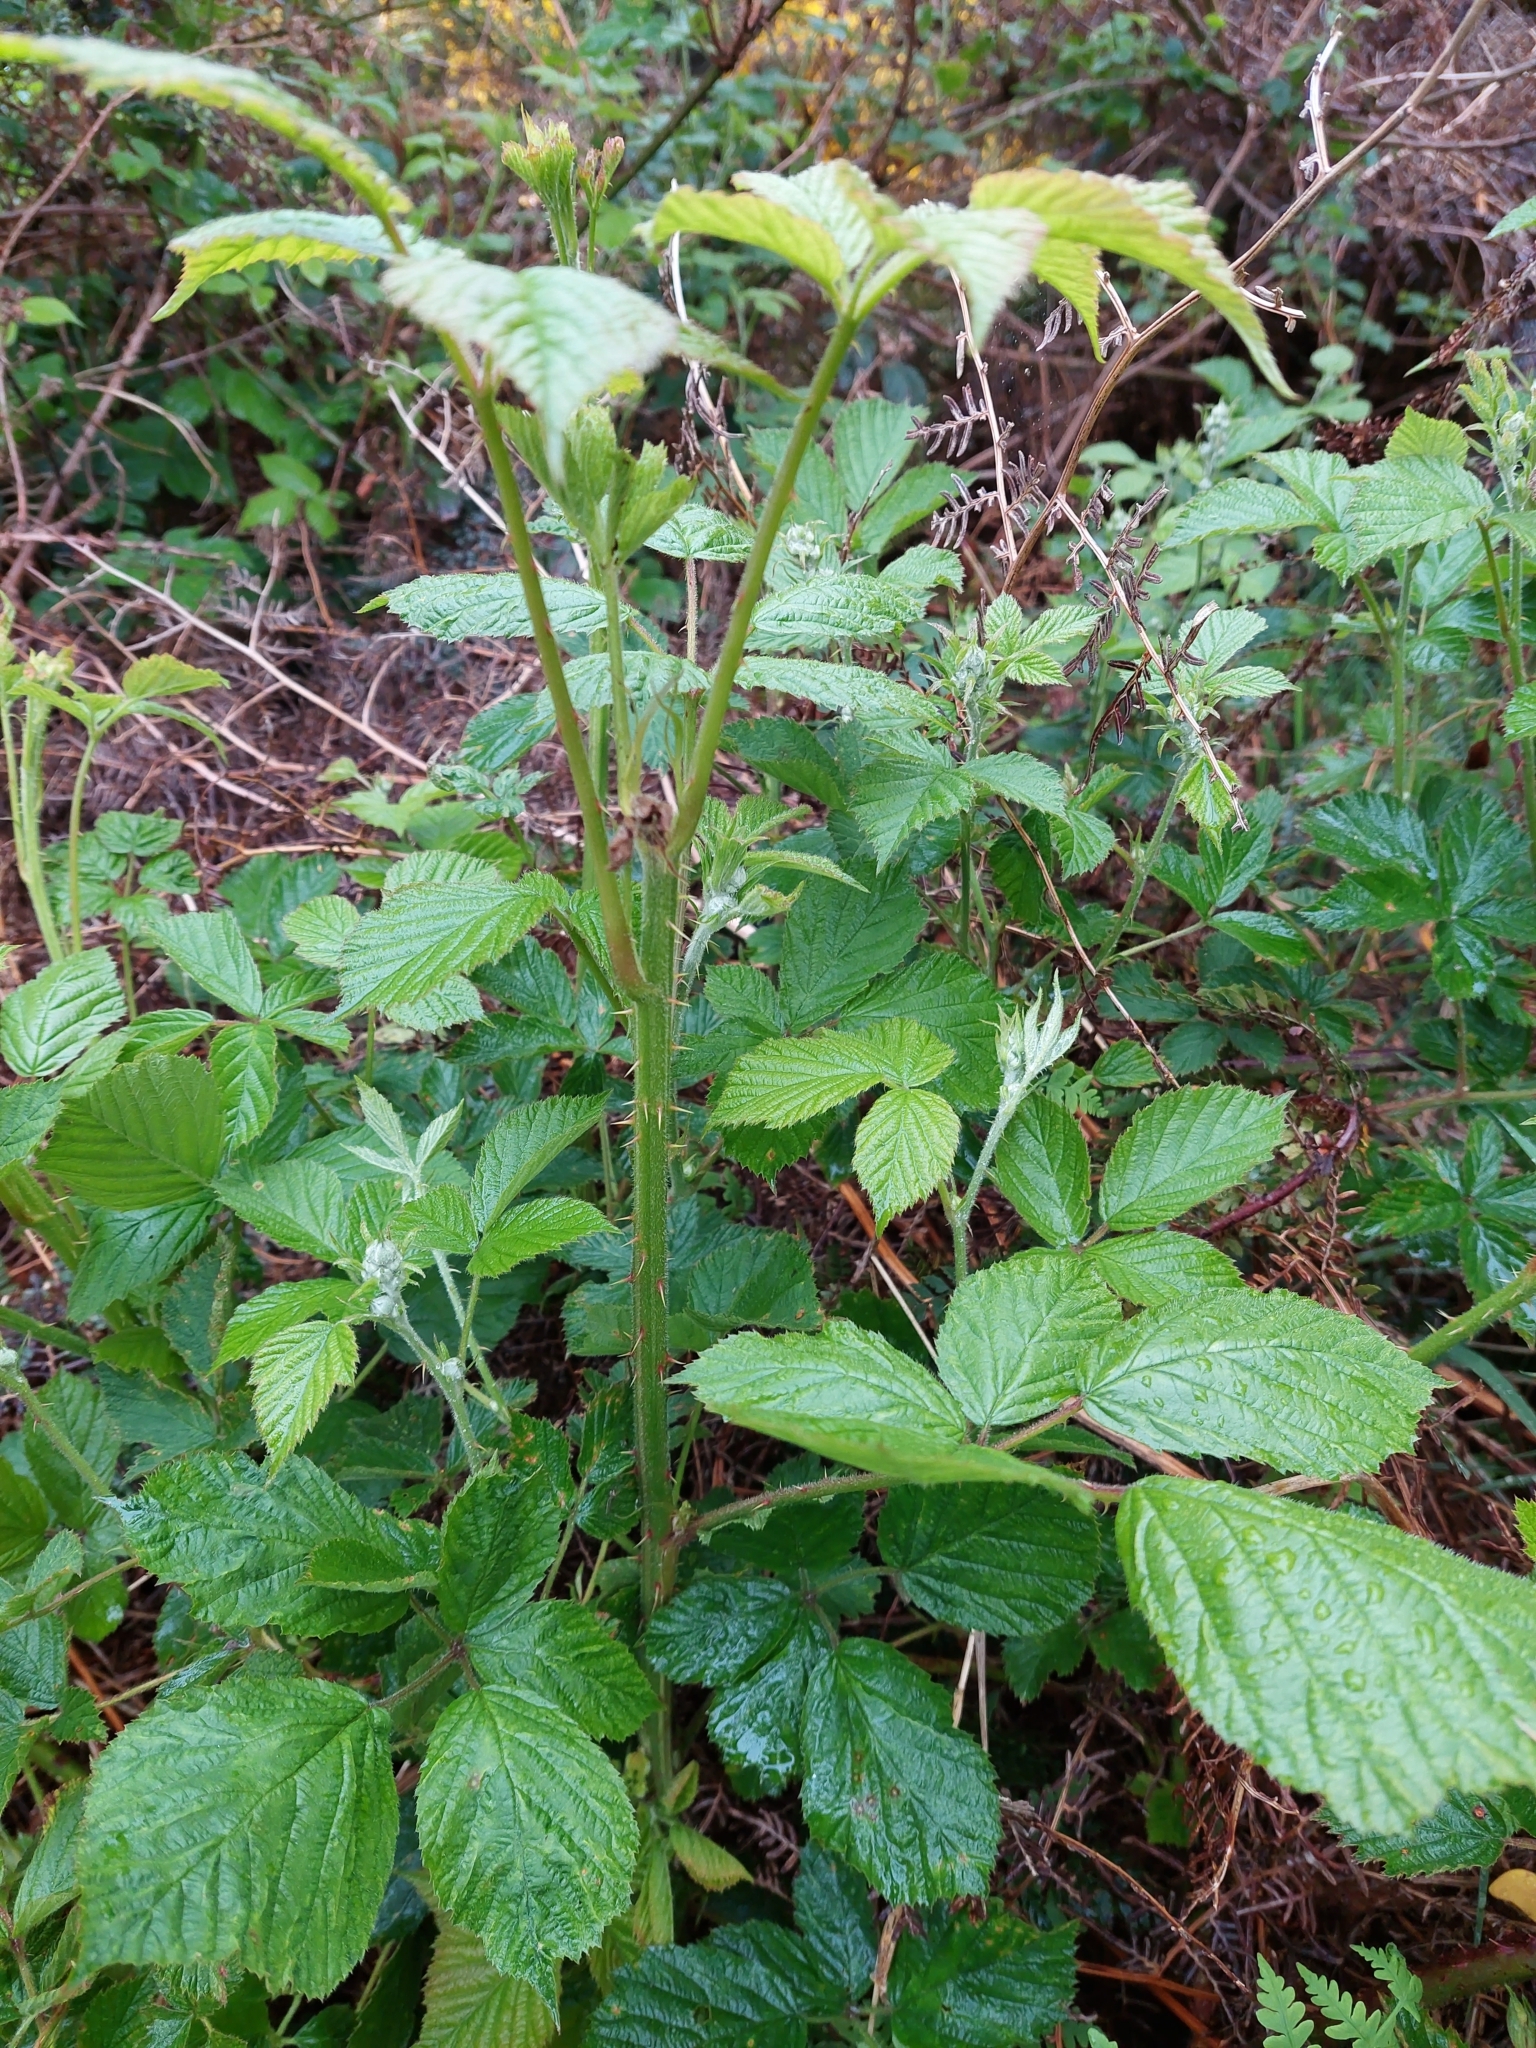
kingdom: Plantae
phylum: Tracheophyta
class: Magnoliopsida
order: Rosales
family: Rosaceae
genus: Rubus
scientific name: Rubus fruticosus
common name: Blackberry, bramble
